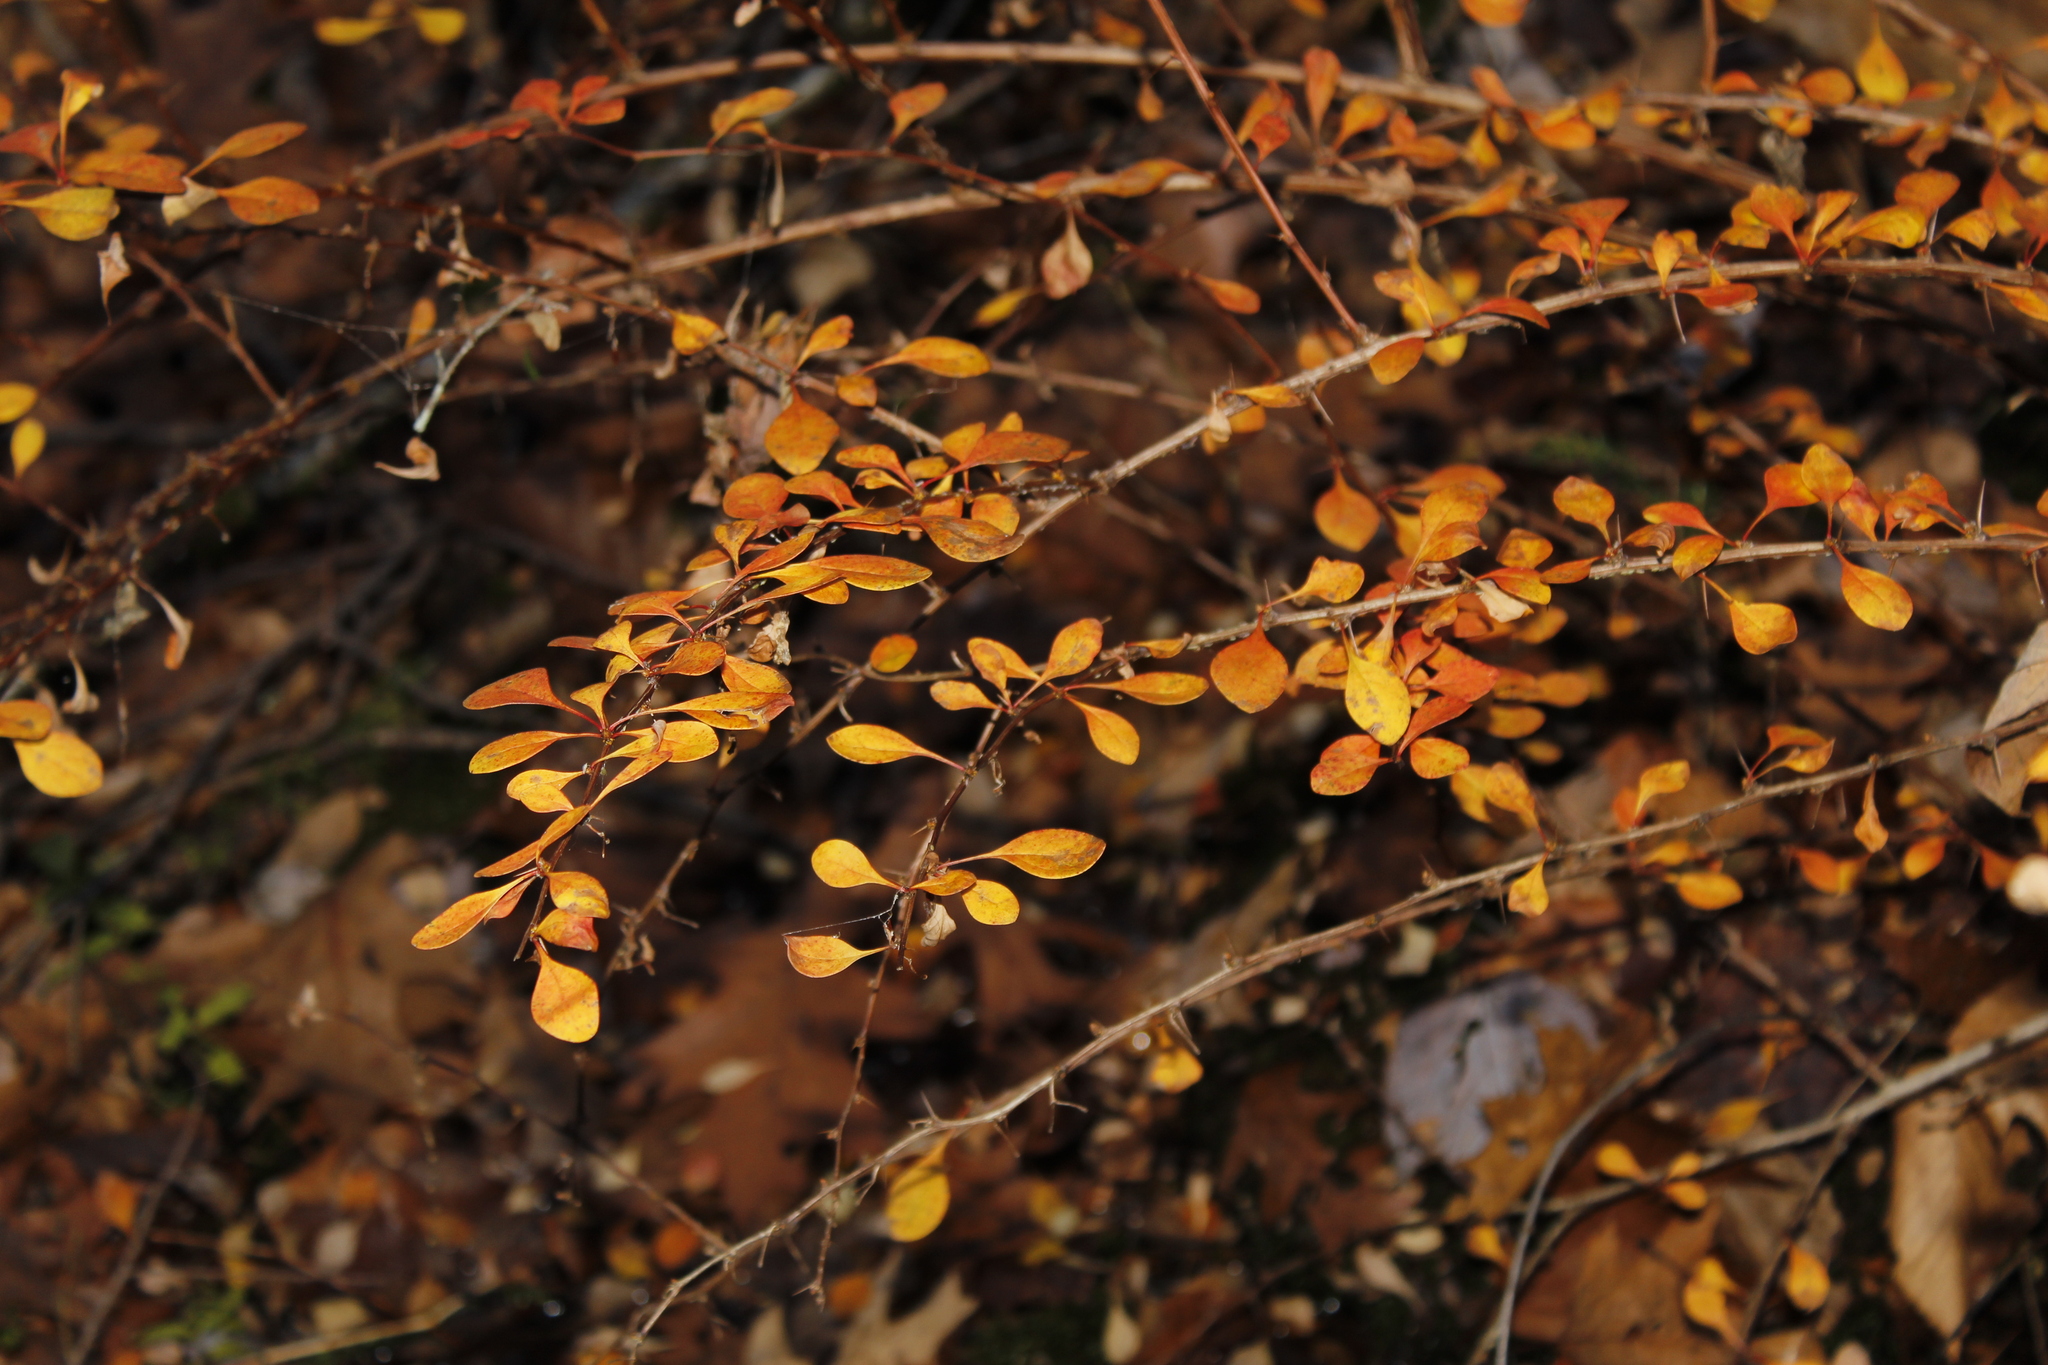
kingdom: Plantae
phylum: Tracheophyta
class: Magnoliopsida
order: Ranunculales
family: Berberidaceae
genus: Berberis
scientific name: Berberis thunbergii
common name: Japanese barberry
